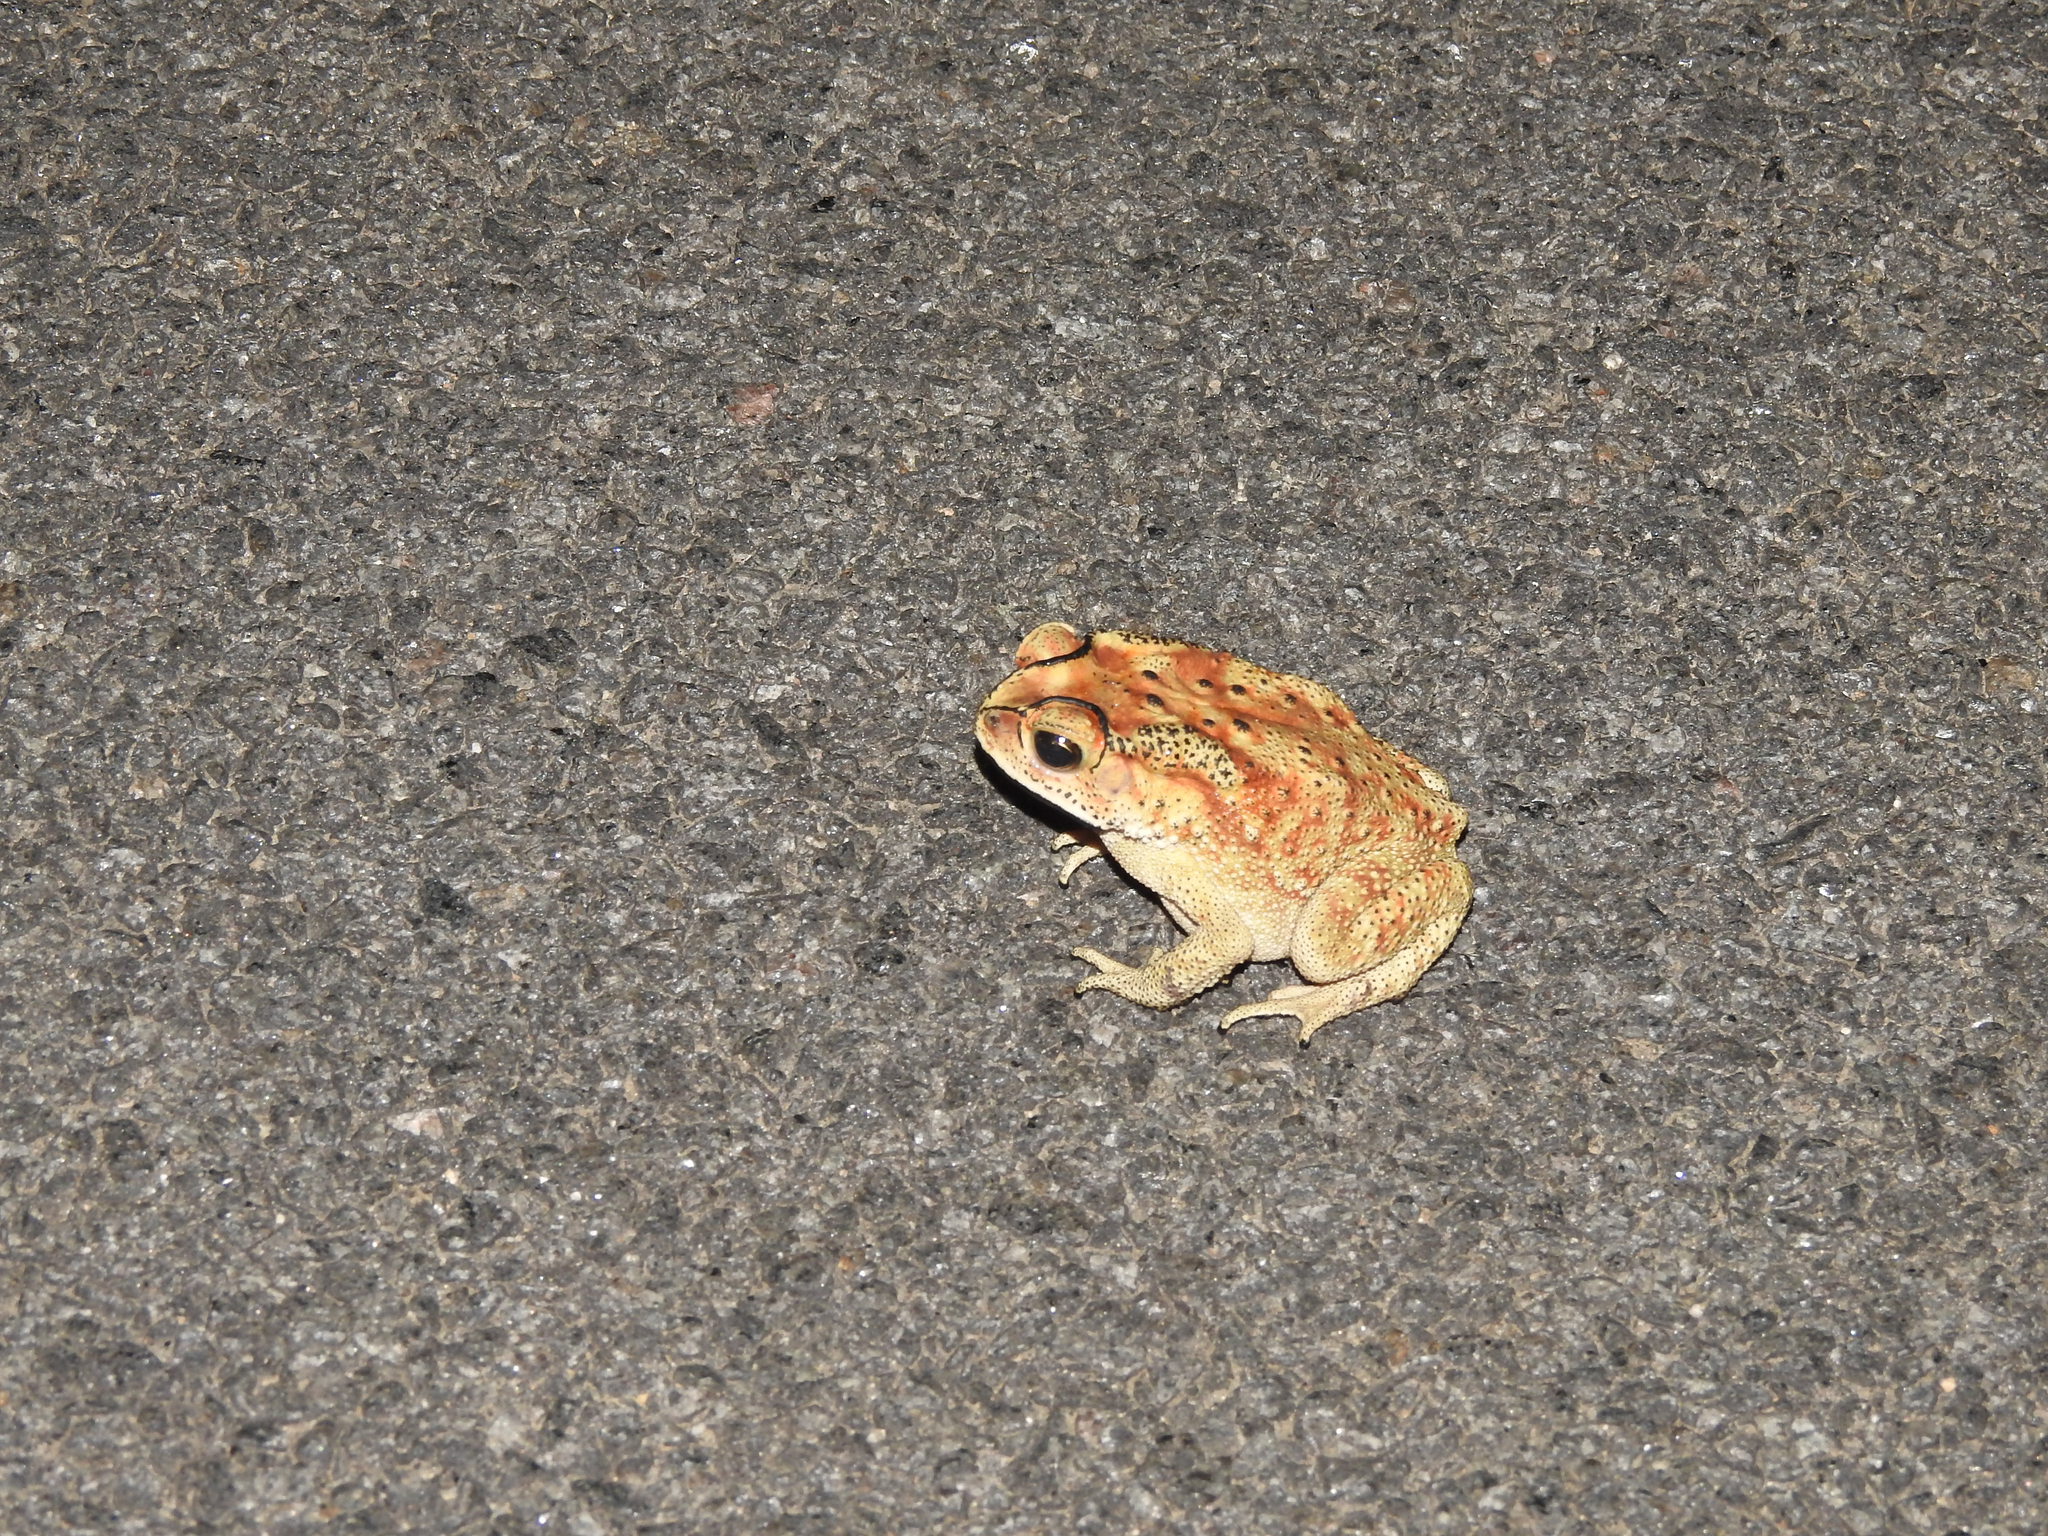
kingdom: Animalia
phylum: Chordata
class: Amphibia
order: Anura
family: Bufonidae
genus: Duttaphrynus
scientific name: Duttaphrynus melanostictus
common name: Common sunda toad
